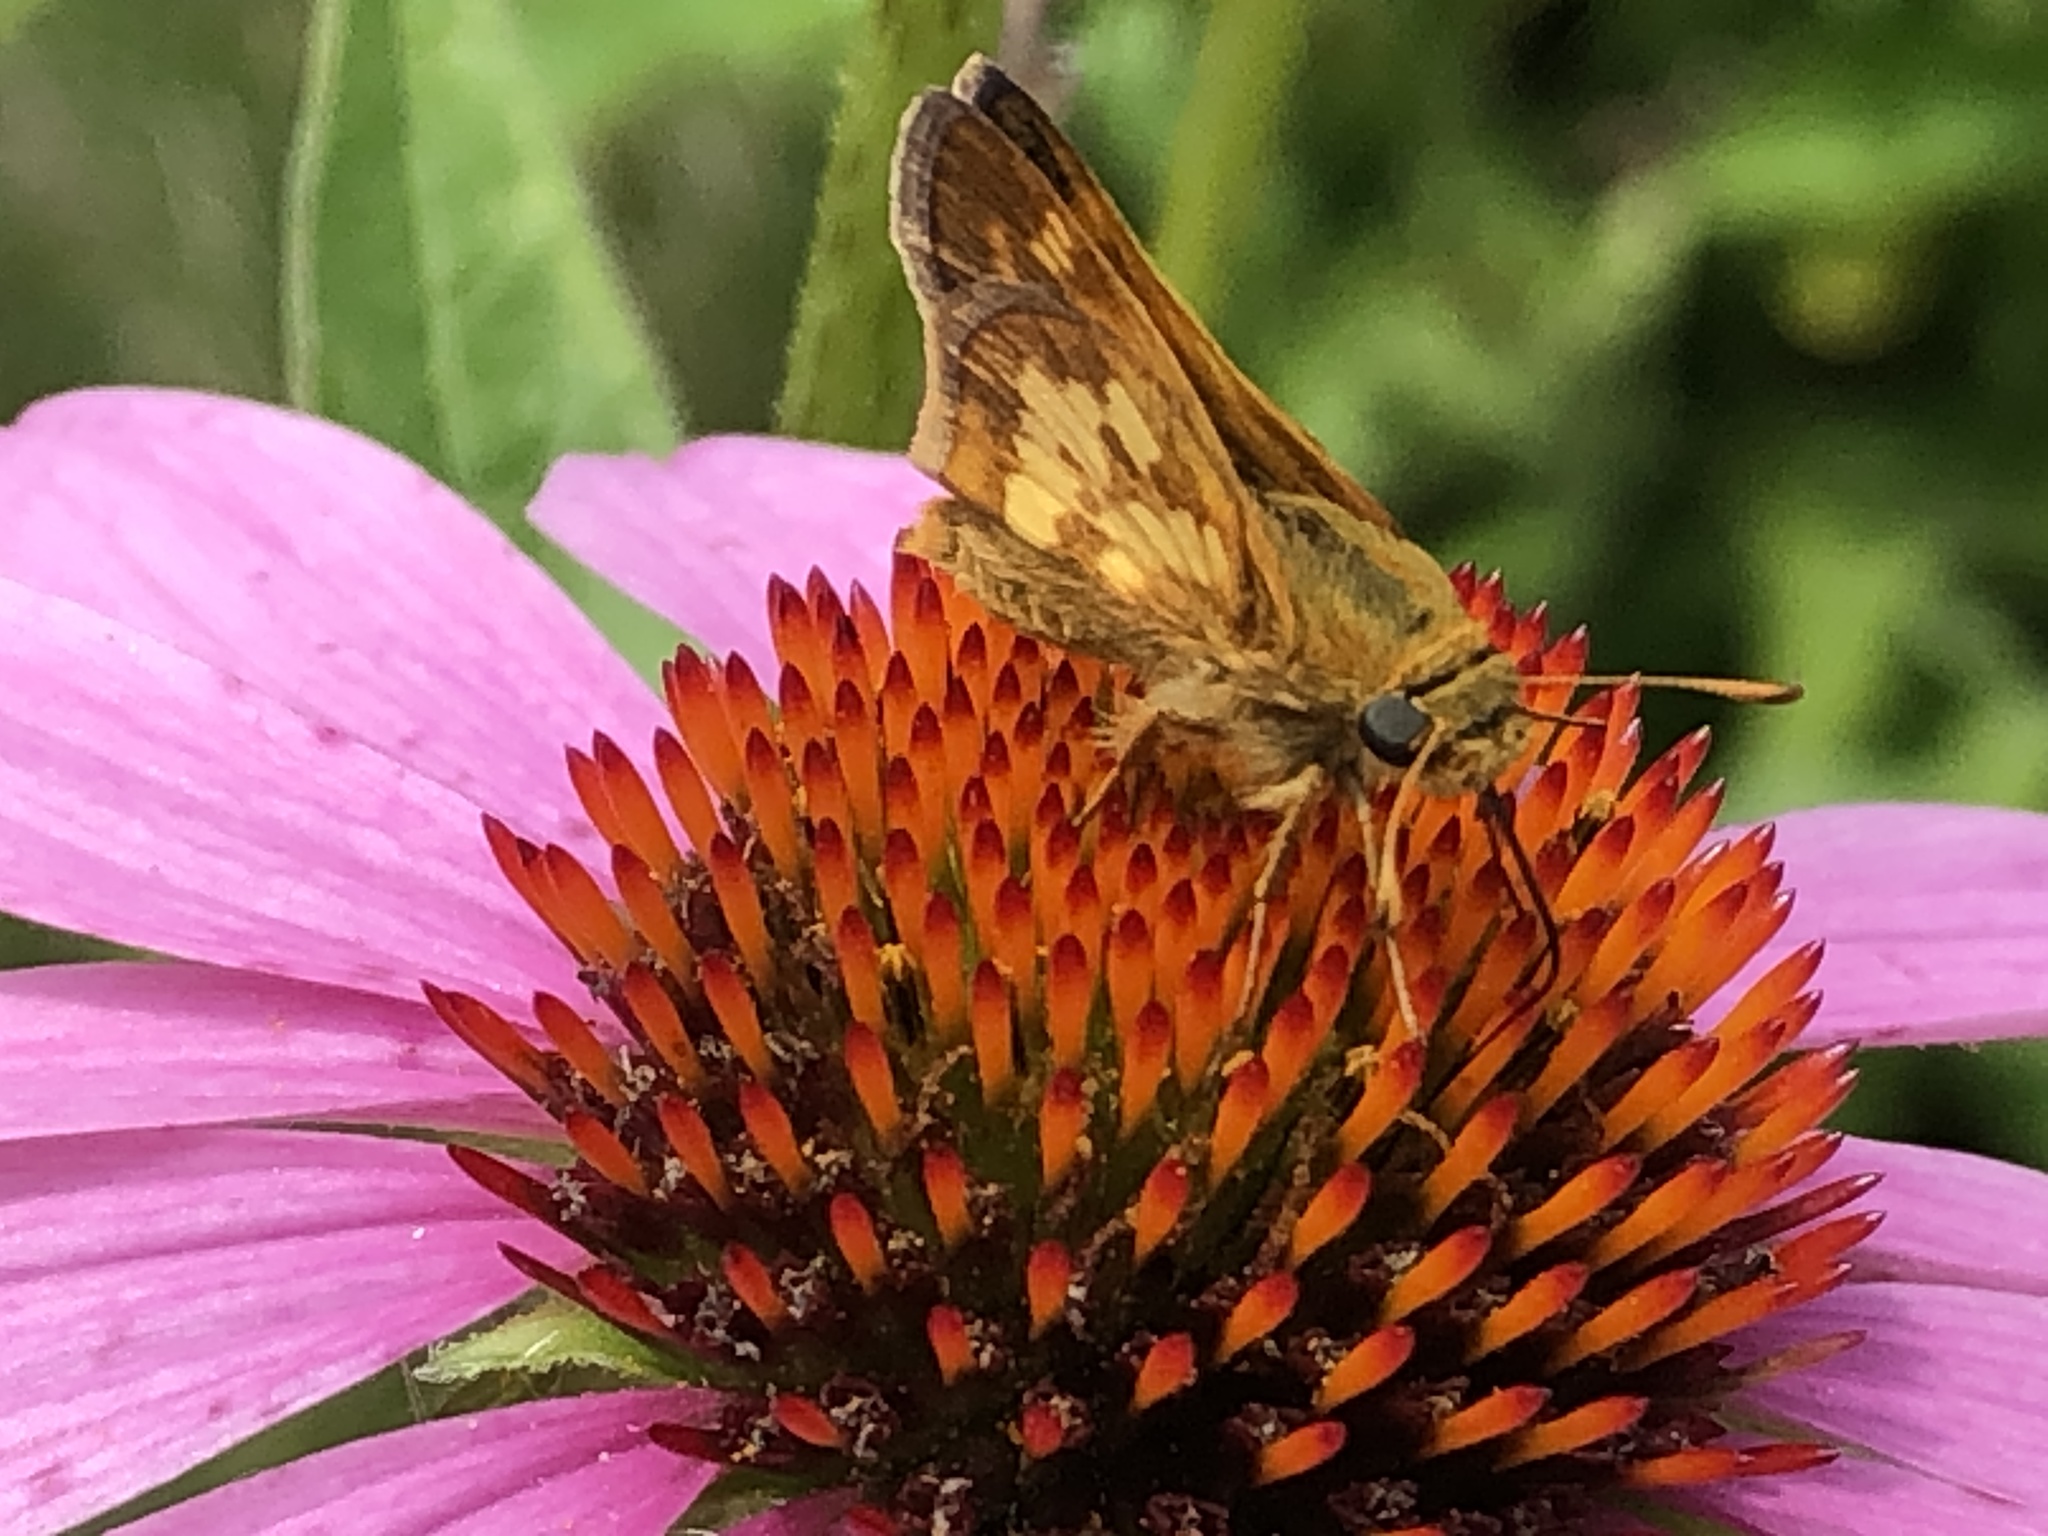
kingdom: Animalia
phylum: Arthropoda
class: Insecta
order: Lepidoptera
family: Hesperiidae
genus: Polites
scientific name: Polites coras
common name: Peck's skipper
